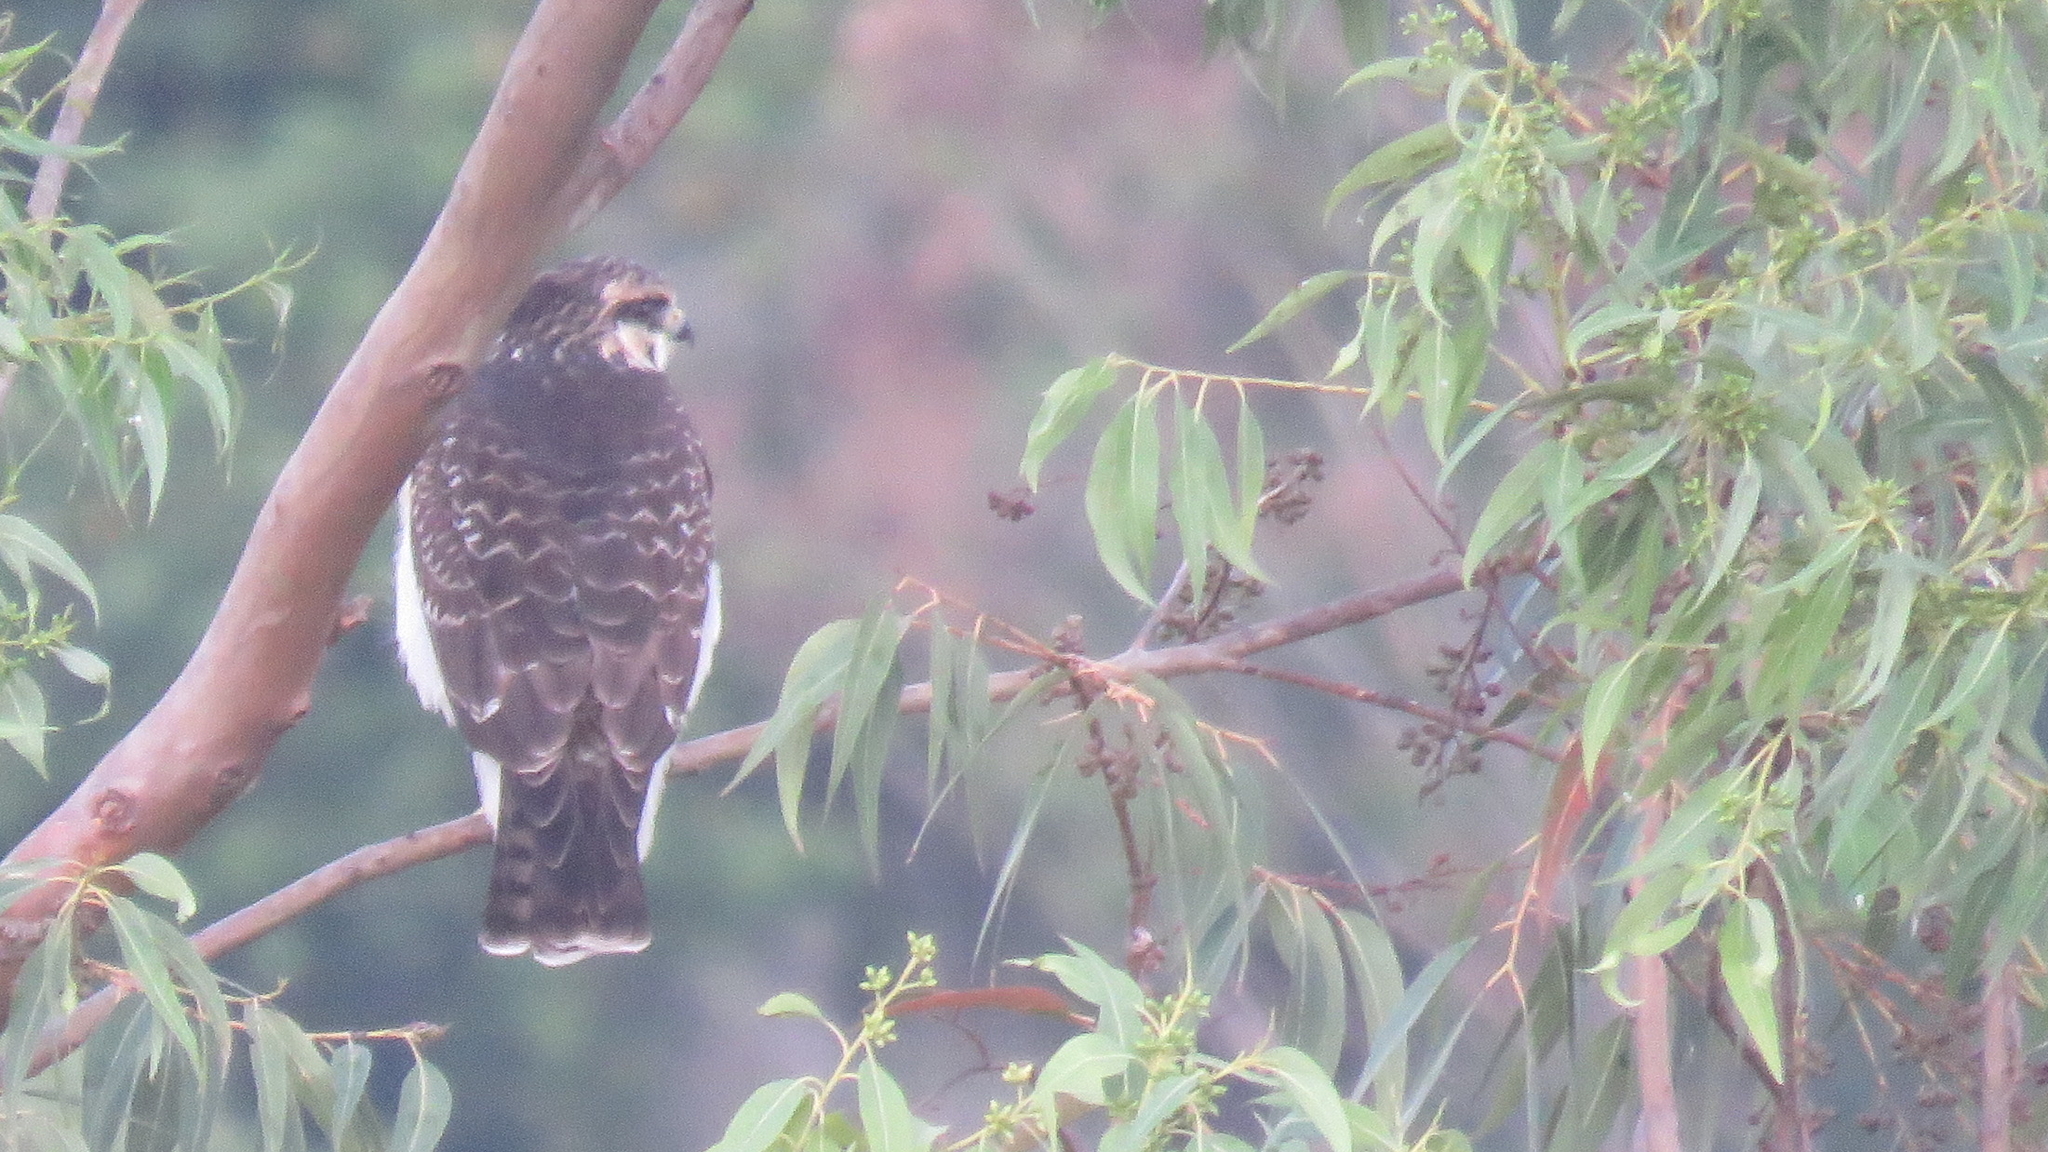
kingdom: Animalia
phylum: Chordata
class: Aves
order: Accipitriformes
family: Accipitridae
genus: Buteo
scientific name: Buteo brachyurus
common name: Short-tailed hawk
